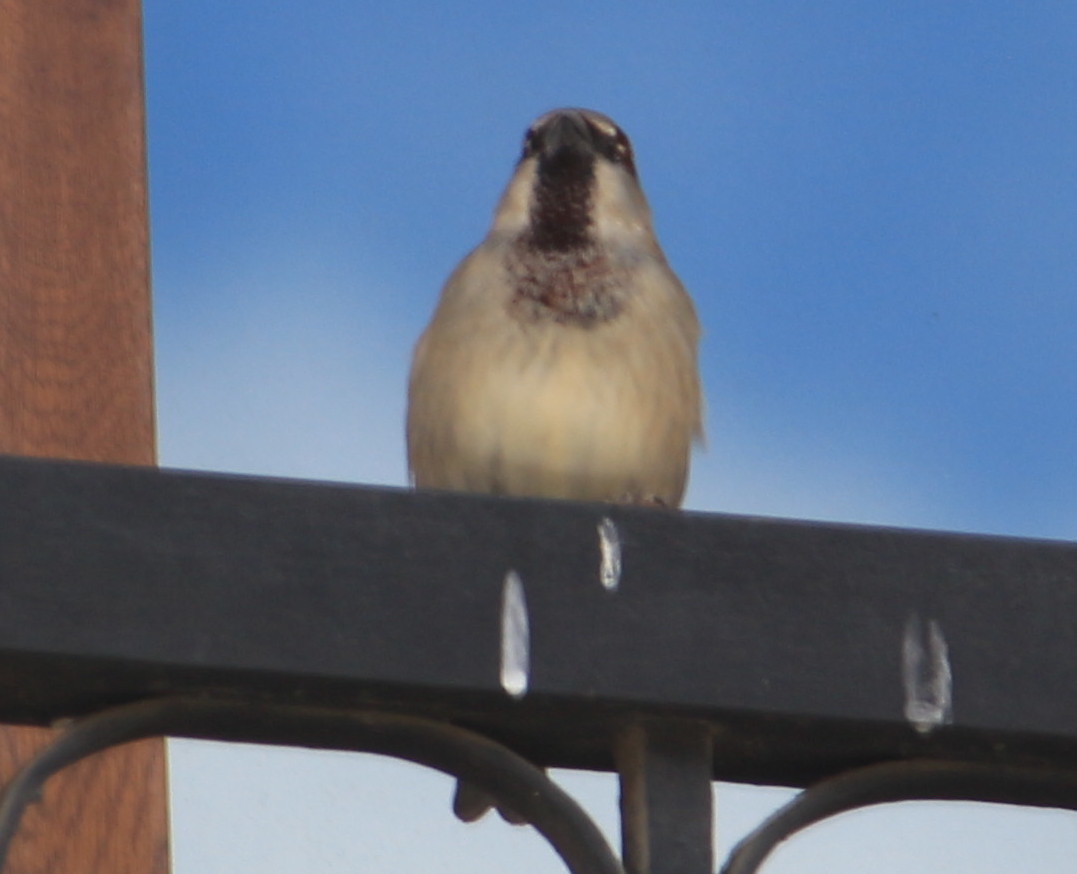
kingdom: Animalia
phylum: Chordata
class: Aves
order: Passeriformes
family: Passeridae
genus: Passer
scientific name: Passer domesticus
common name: House sparrow
